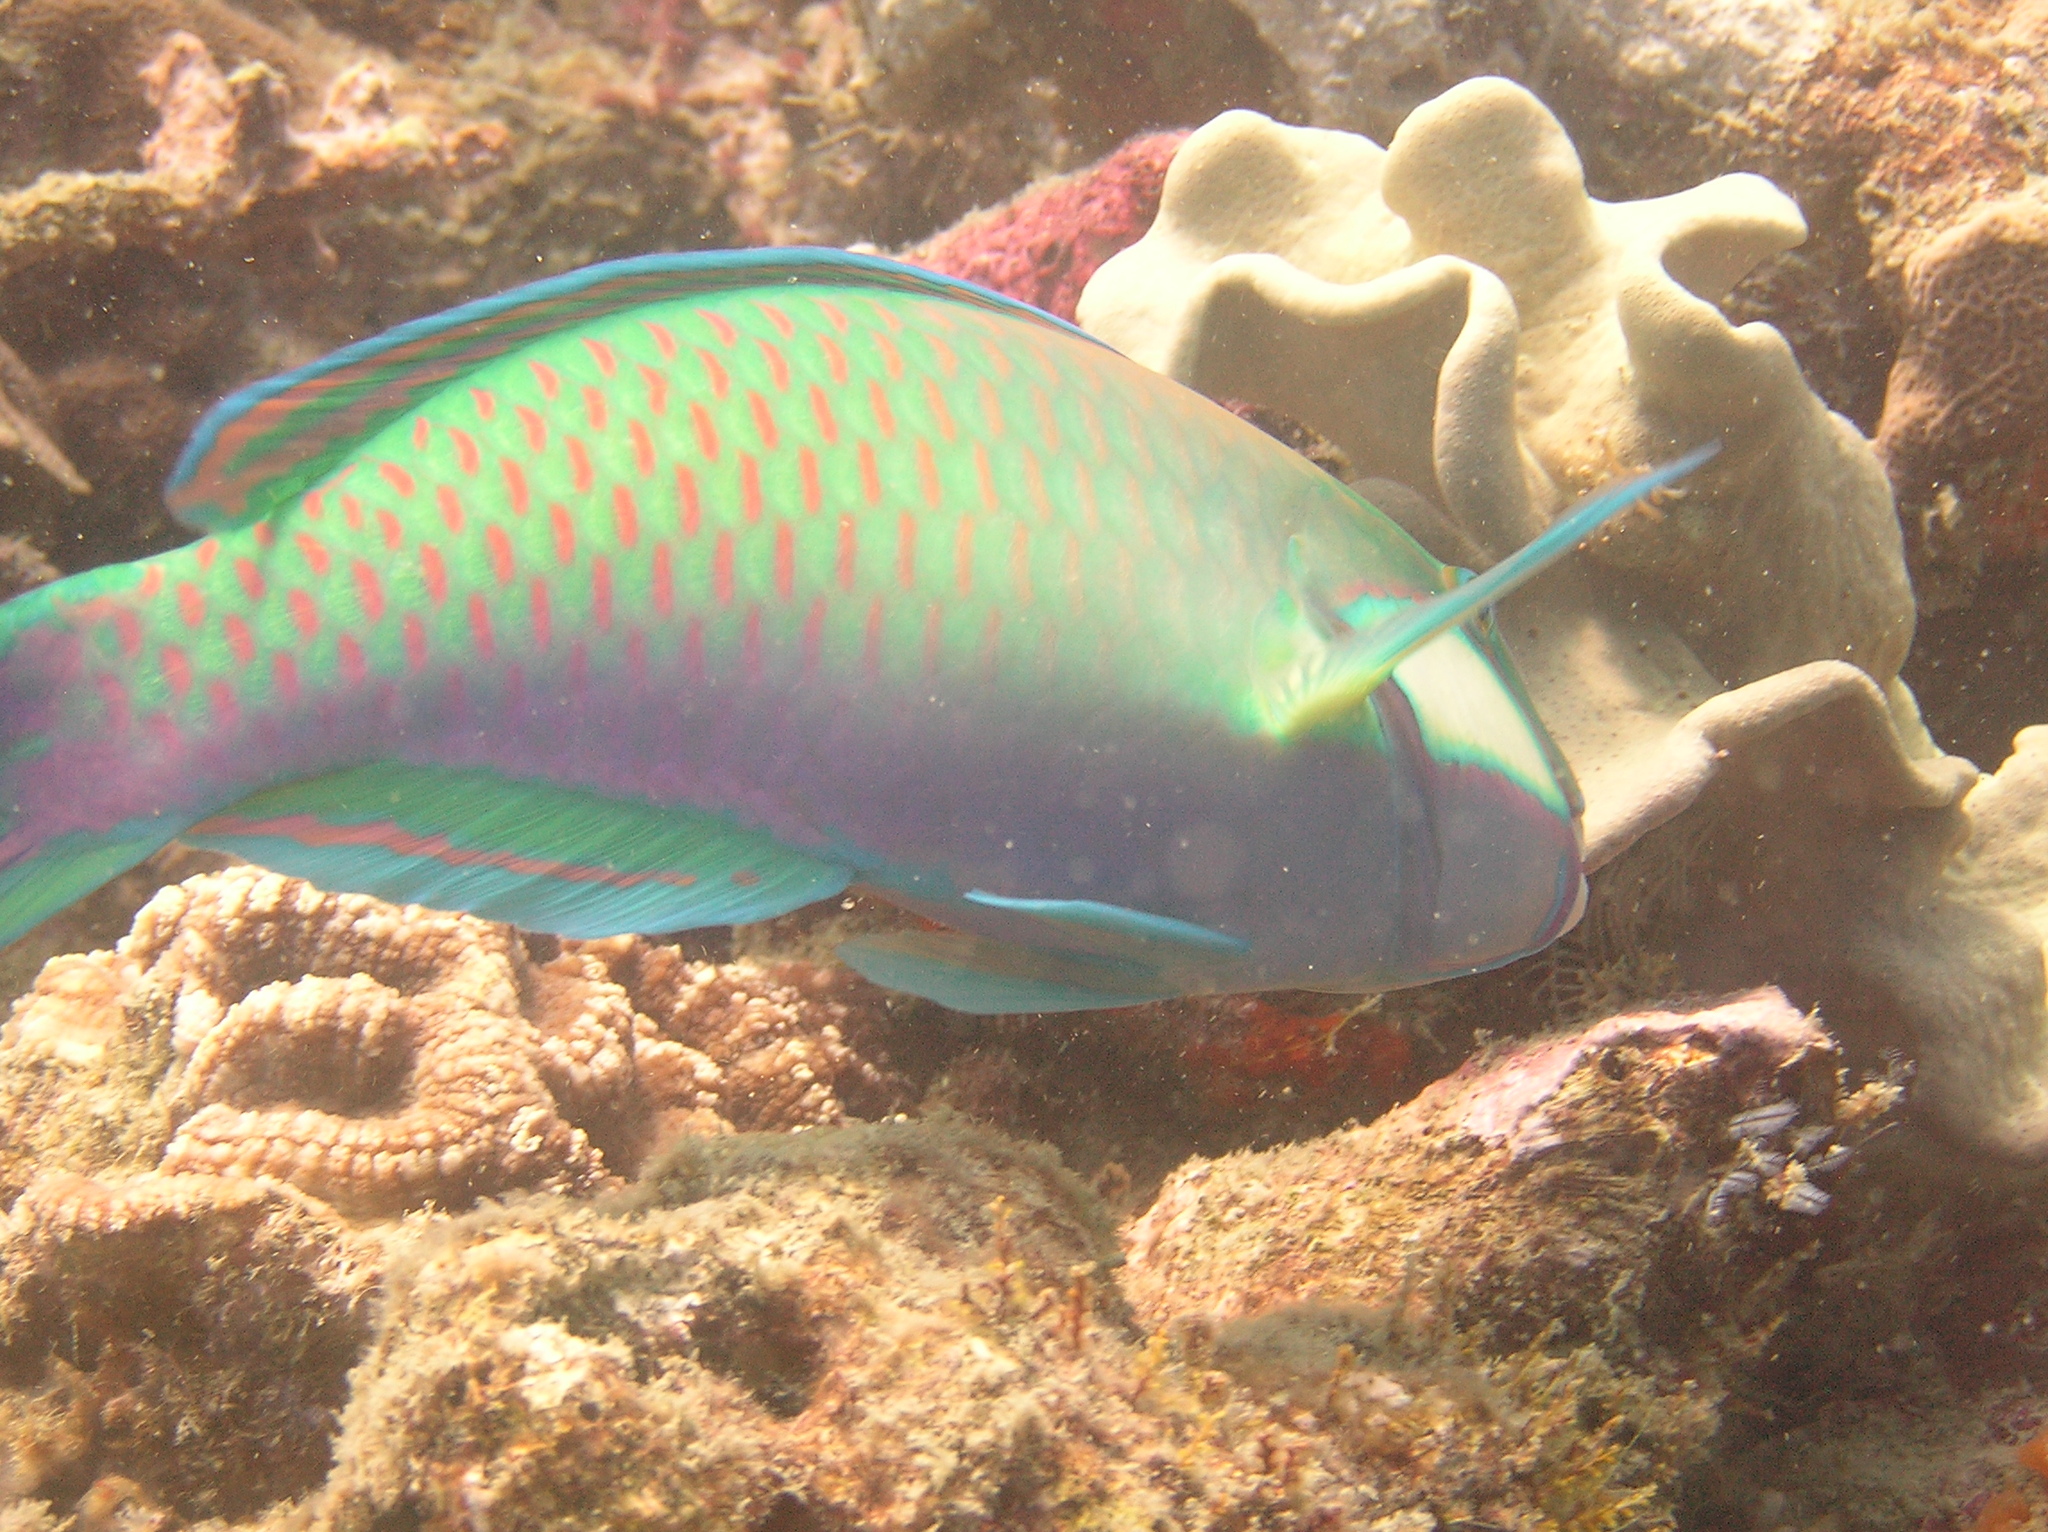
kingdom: Animalia
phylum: Chordata
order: Perciformes
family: Scaridae
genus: Chlorurus
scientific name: Chlorurus bleekeri
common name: Bleeker's parrotfish
